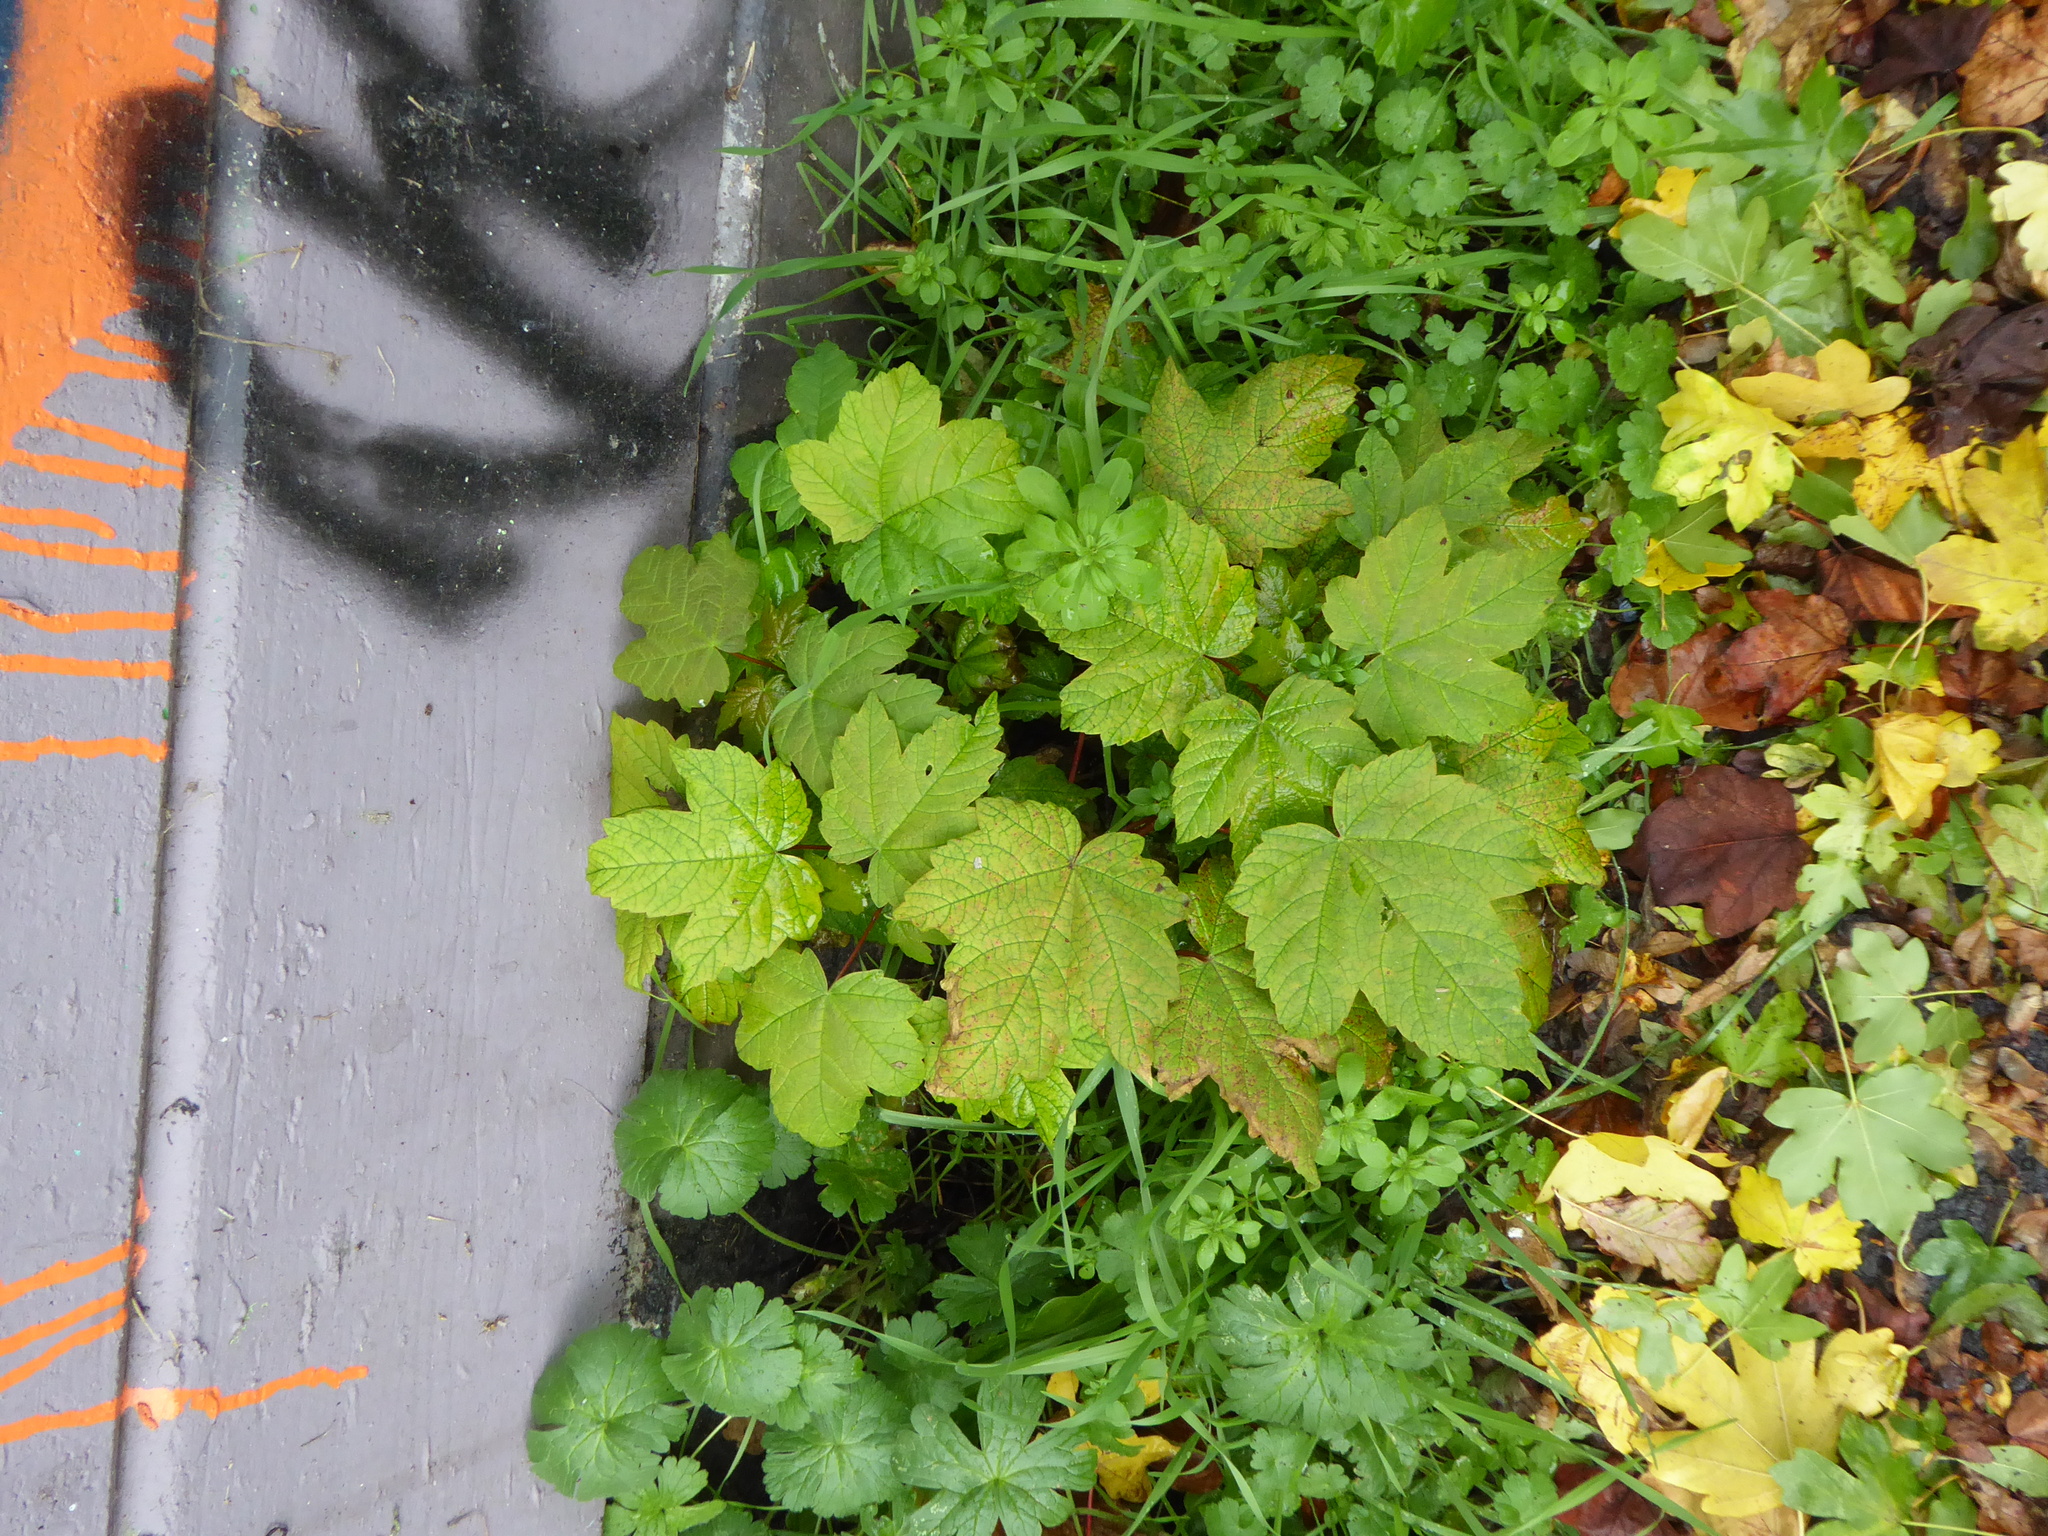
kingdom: Plantae
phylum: Tracheophyta
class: Magnoliopsida
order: Sapindales
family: Sapindaceae
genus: Acer
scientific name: Acer pseudoplatanus
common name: Sycamore
